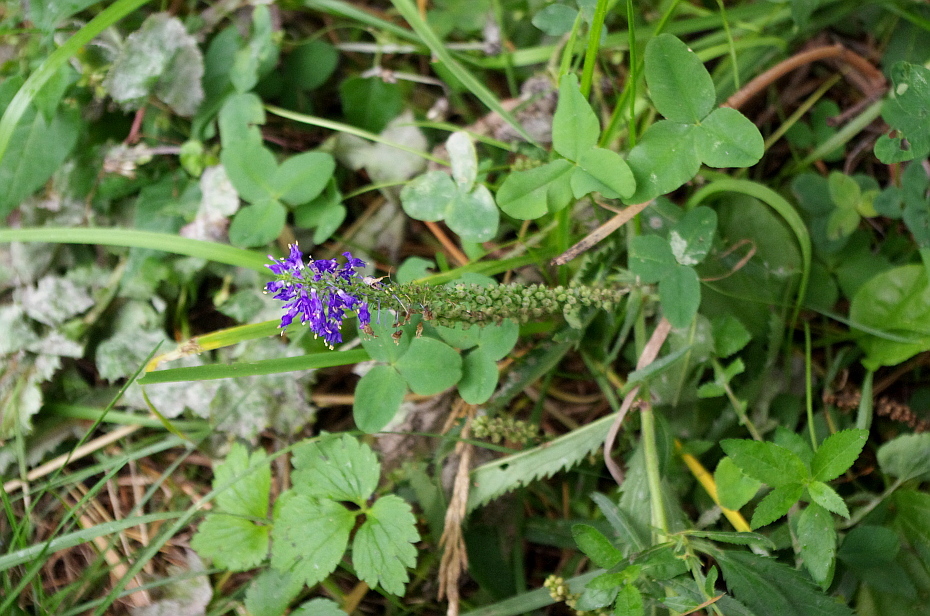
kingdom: Plantae
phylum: Tracheophyta
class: Magnoliopsida
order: Lamiales
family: Plantaginaceae
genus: Veronica
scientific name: Veronica longifolia
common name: Garden speedwell
